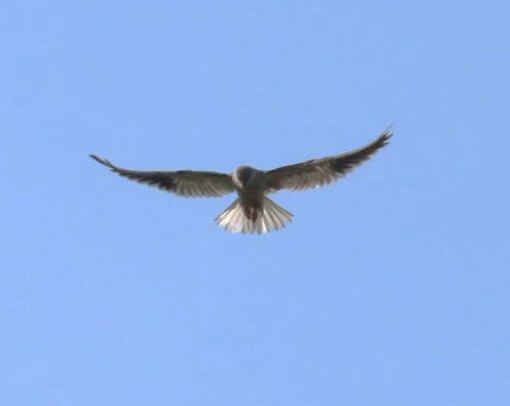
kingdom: Animalia
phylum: Chordata
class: Aves
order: Accipitriformes
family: Accipitridae
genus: Elanus
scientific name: Elanus caeruleus
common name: Black-winged kite
